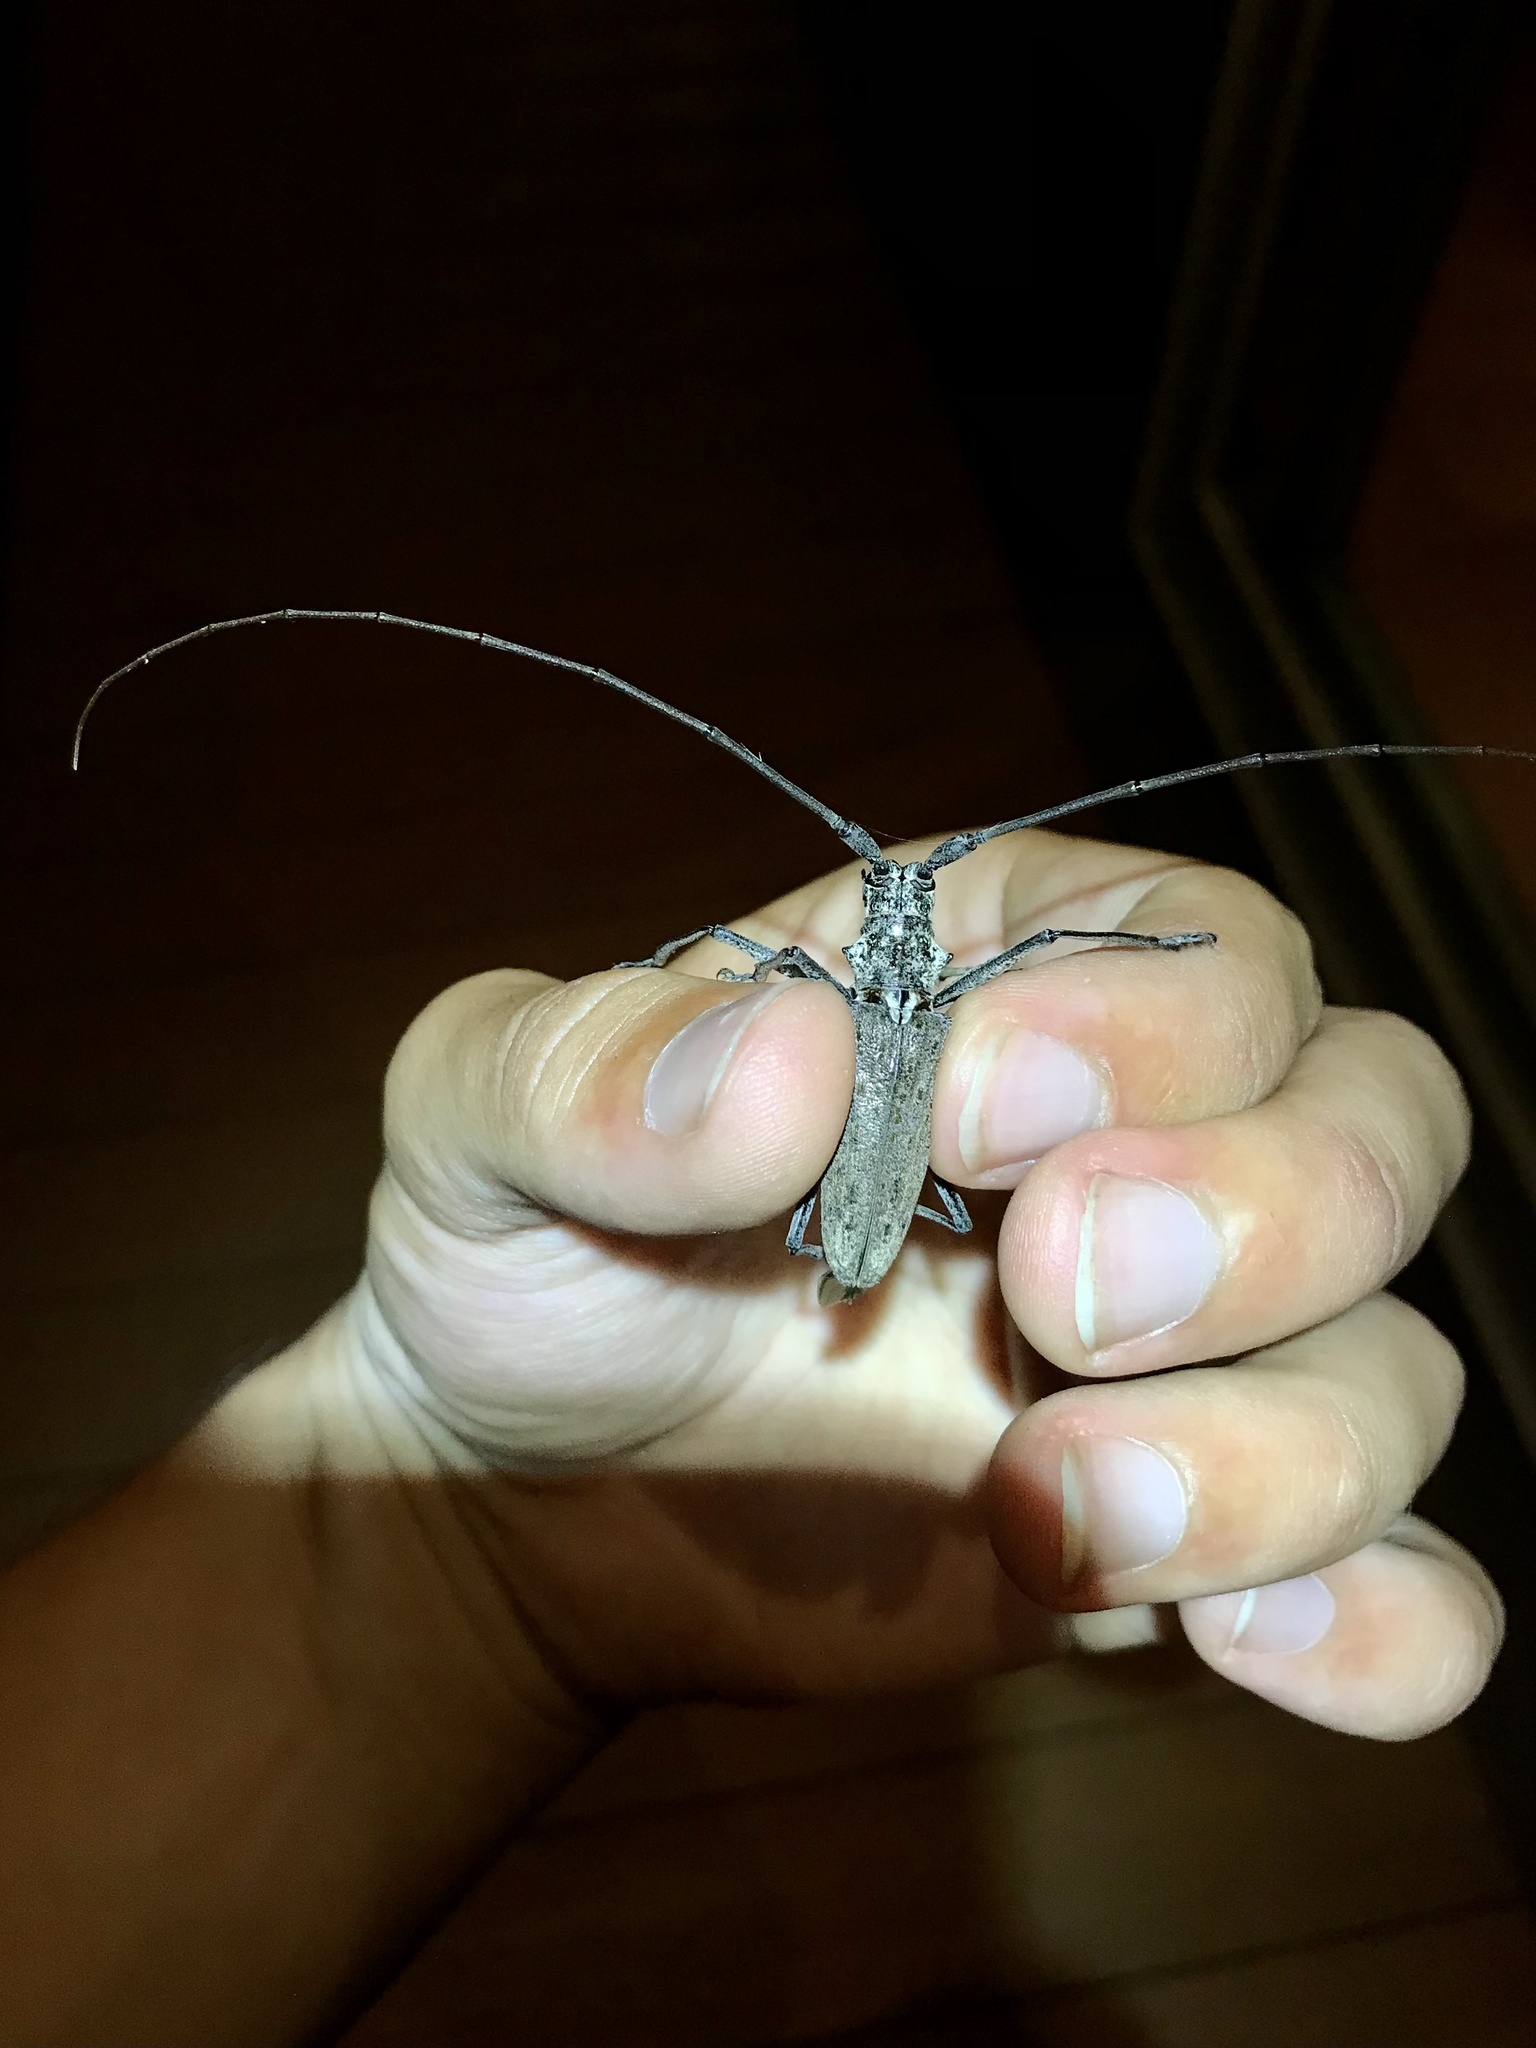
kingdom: Animalia
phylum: Arthropoda
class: Insecta
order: Coleoptera
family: Cerambycidae
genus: Monochamus
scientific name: Monochamus notatus
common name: Northeastern pine sawyer beetle
